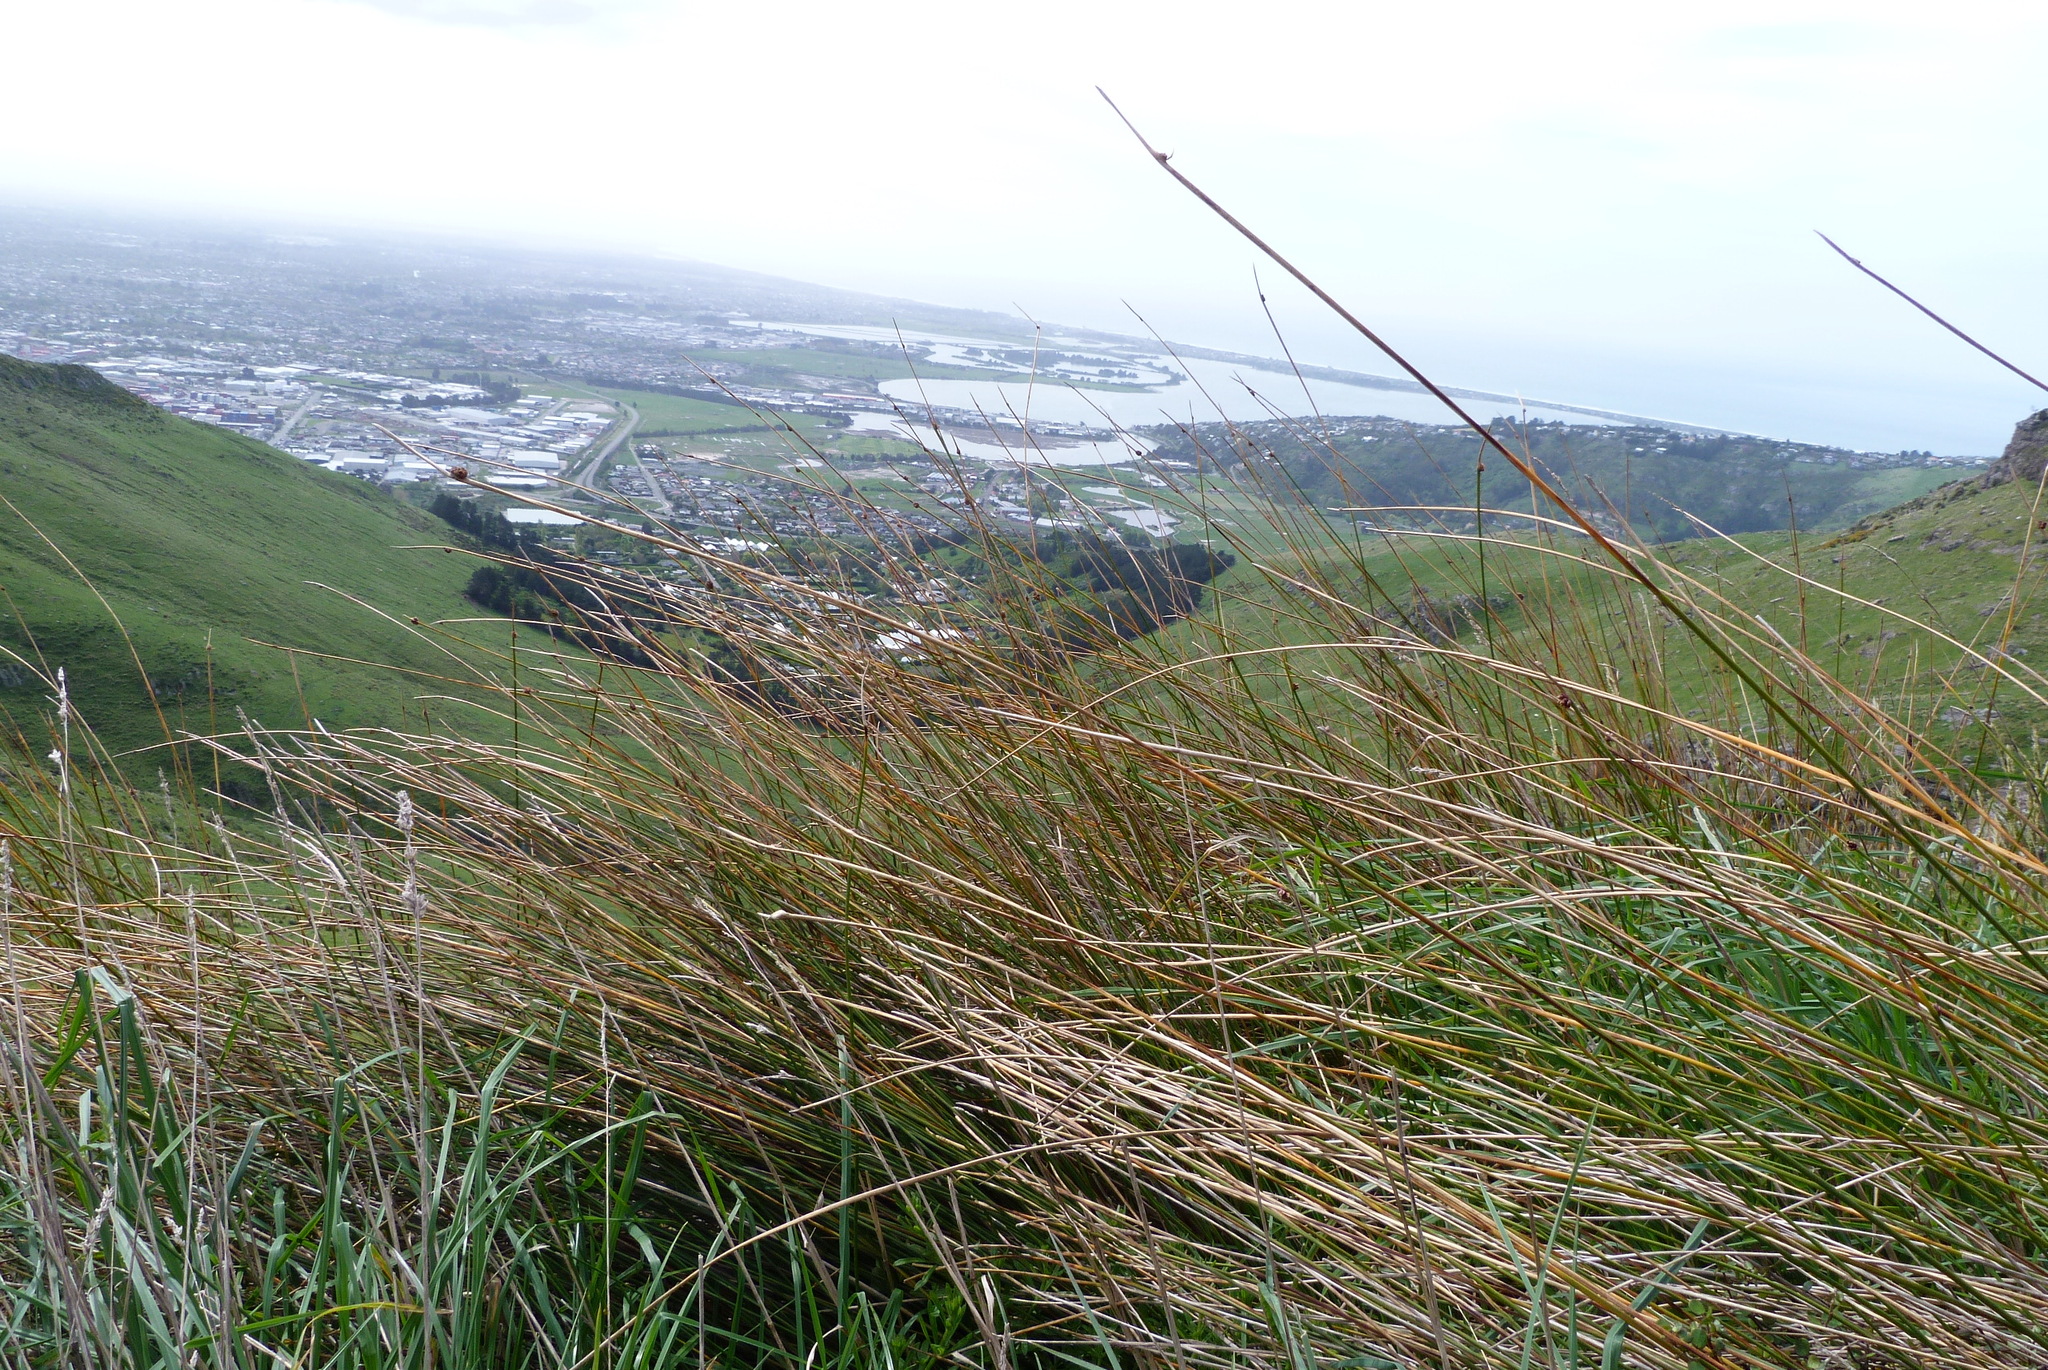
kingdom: Plantae
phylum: Tracheophyta
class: Liliopsida
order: Poales
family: Cyperaceae
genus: Ficinia
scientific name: Ficinia nodosa
